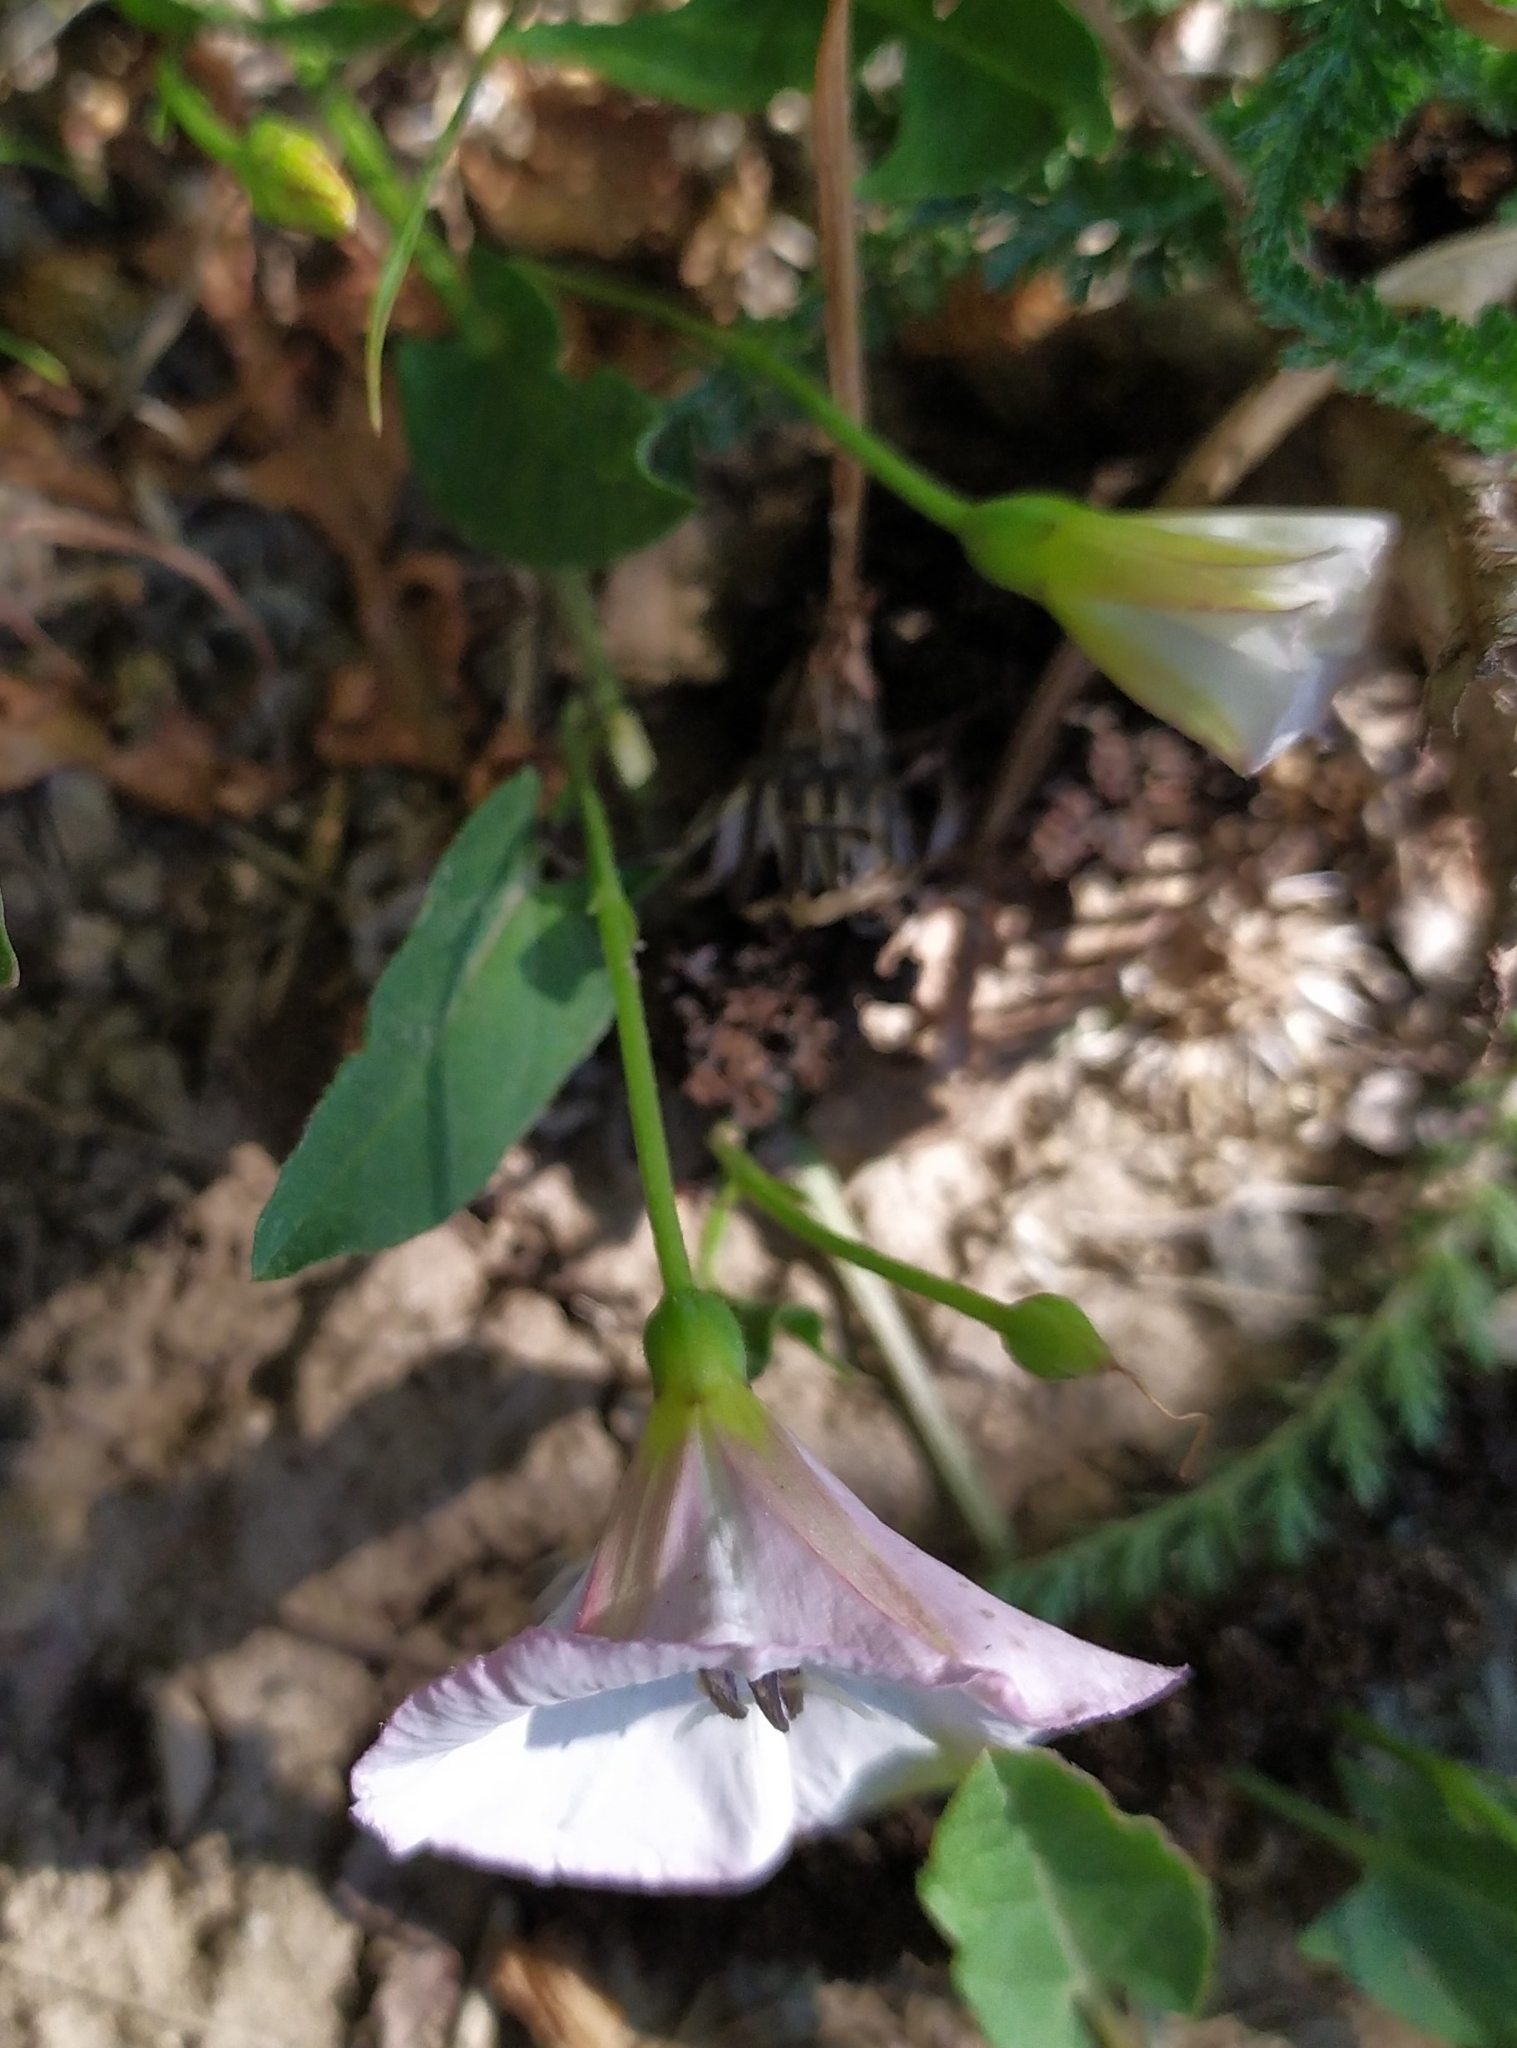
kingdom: Plantae
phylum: Tracheophyta
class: Magnoliopsida
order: Solanales
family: Convolvulaceae
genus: Convolvulus
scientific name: Convolvulus arvensis
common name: Field bindweed
